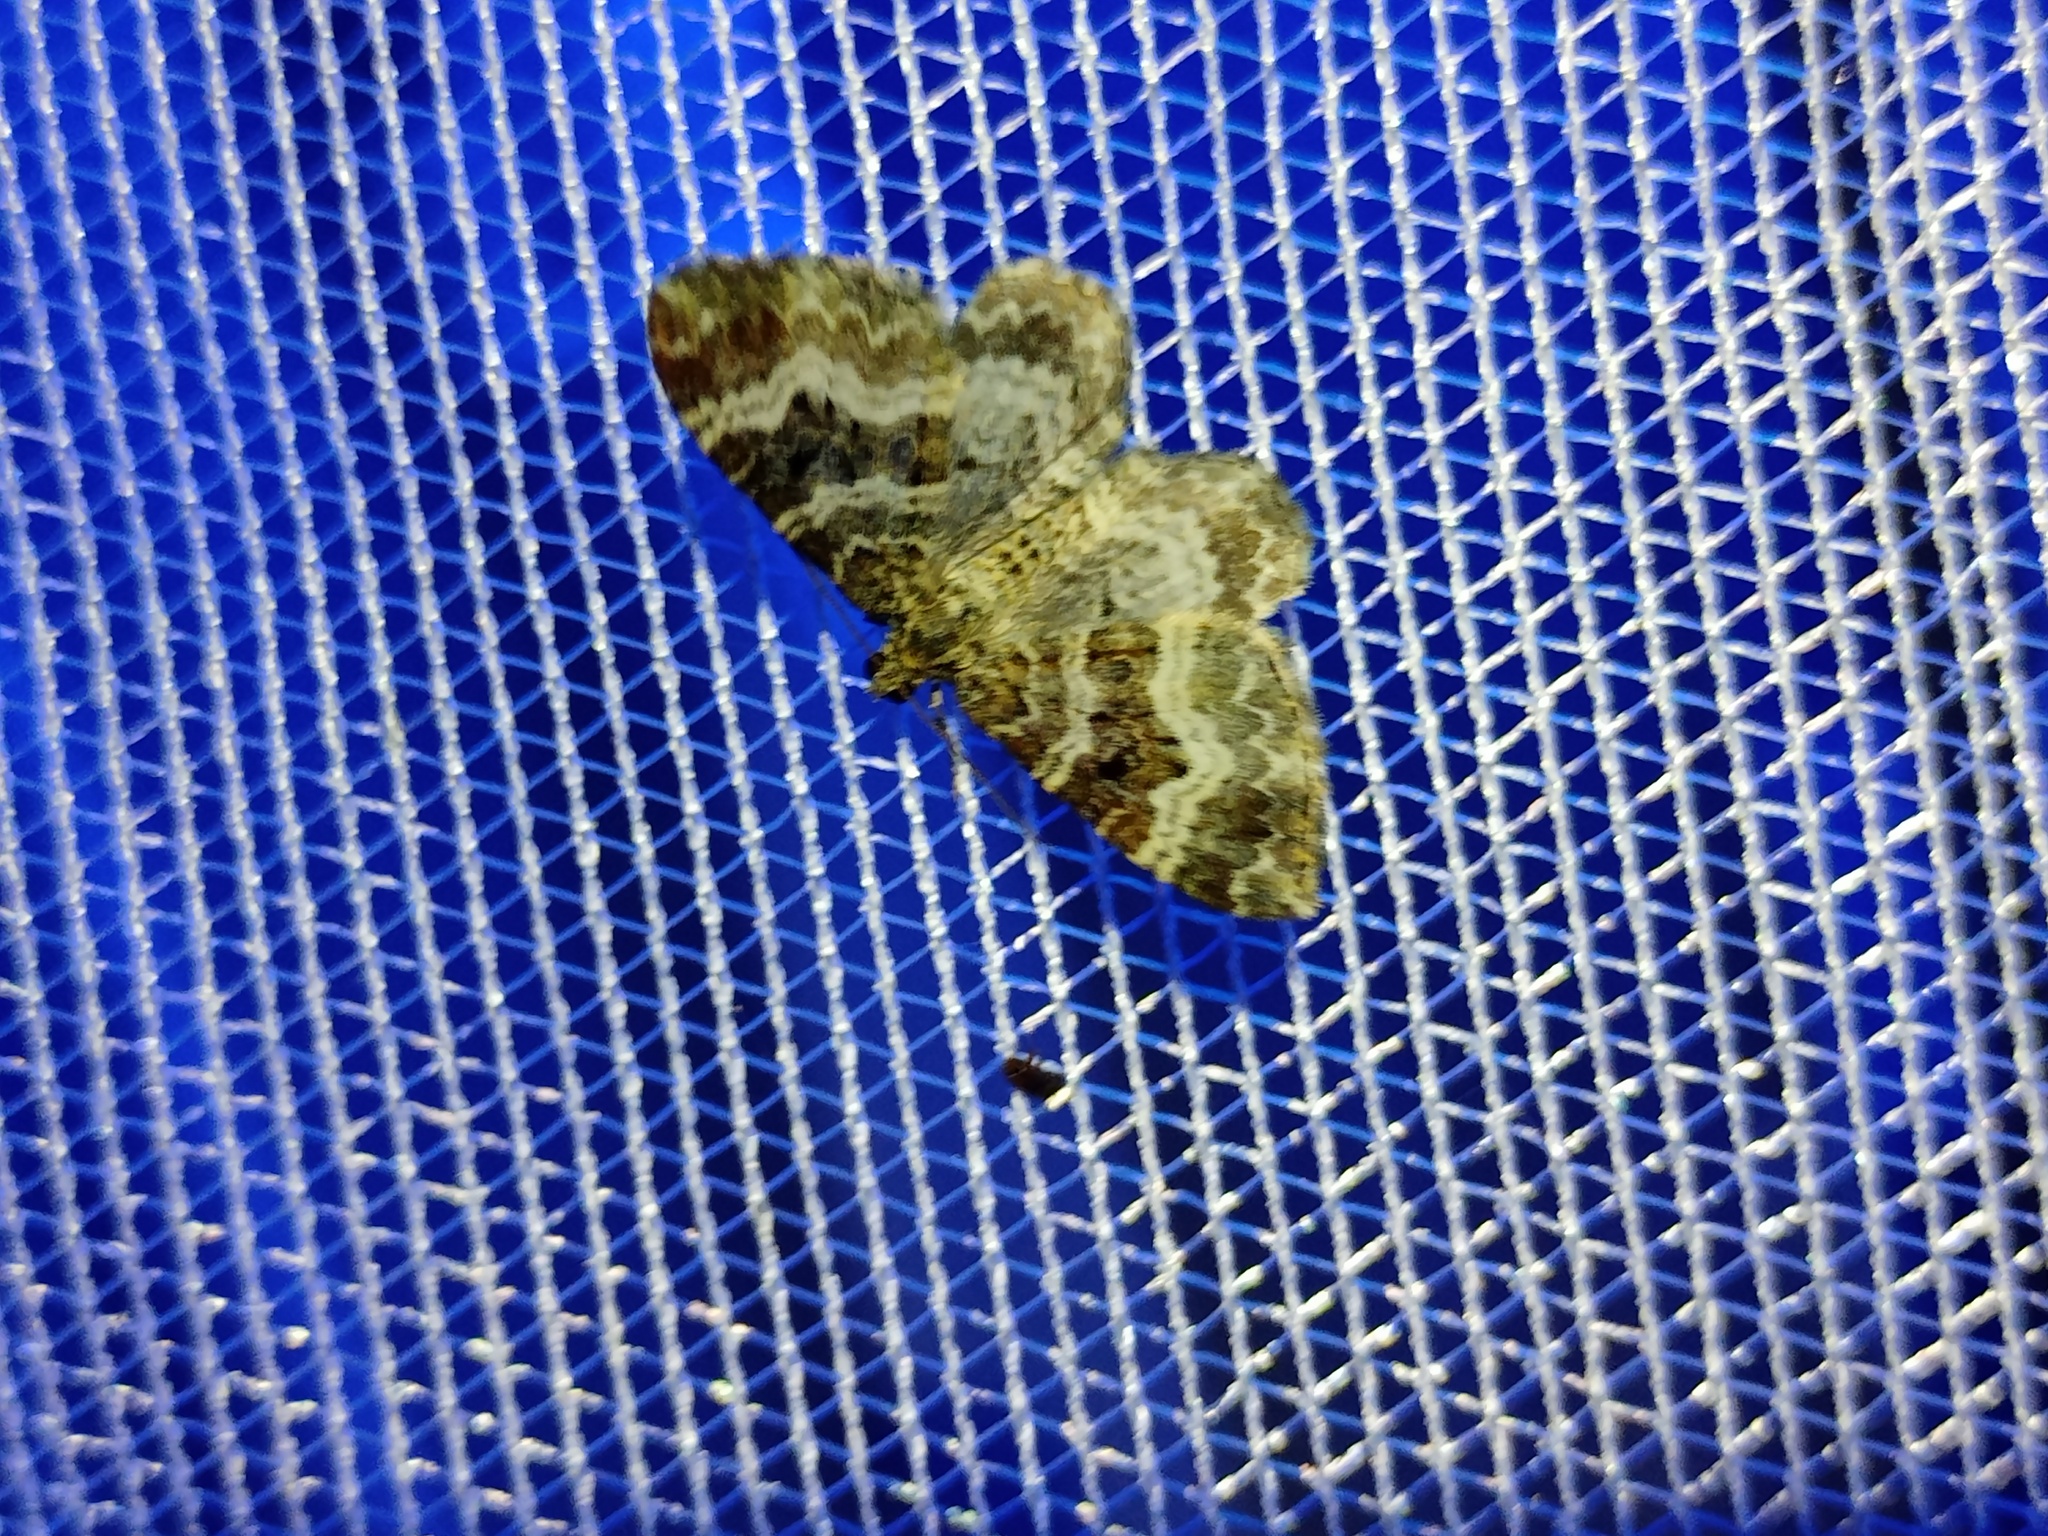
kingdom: Animalia
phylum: Arthropoda
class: Insecta
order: Lepidoptera
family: Geometridae
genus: Epirrhoe
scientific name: Epirrhoe alternata
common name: Common carpet
